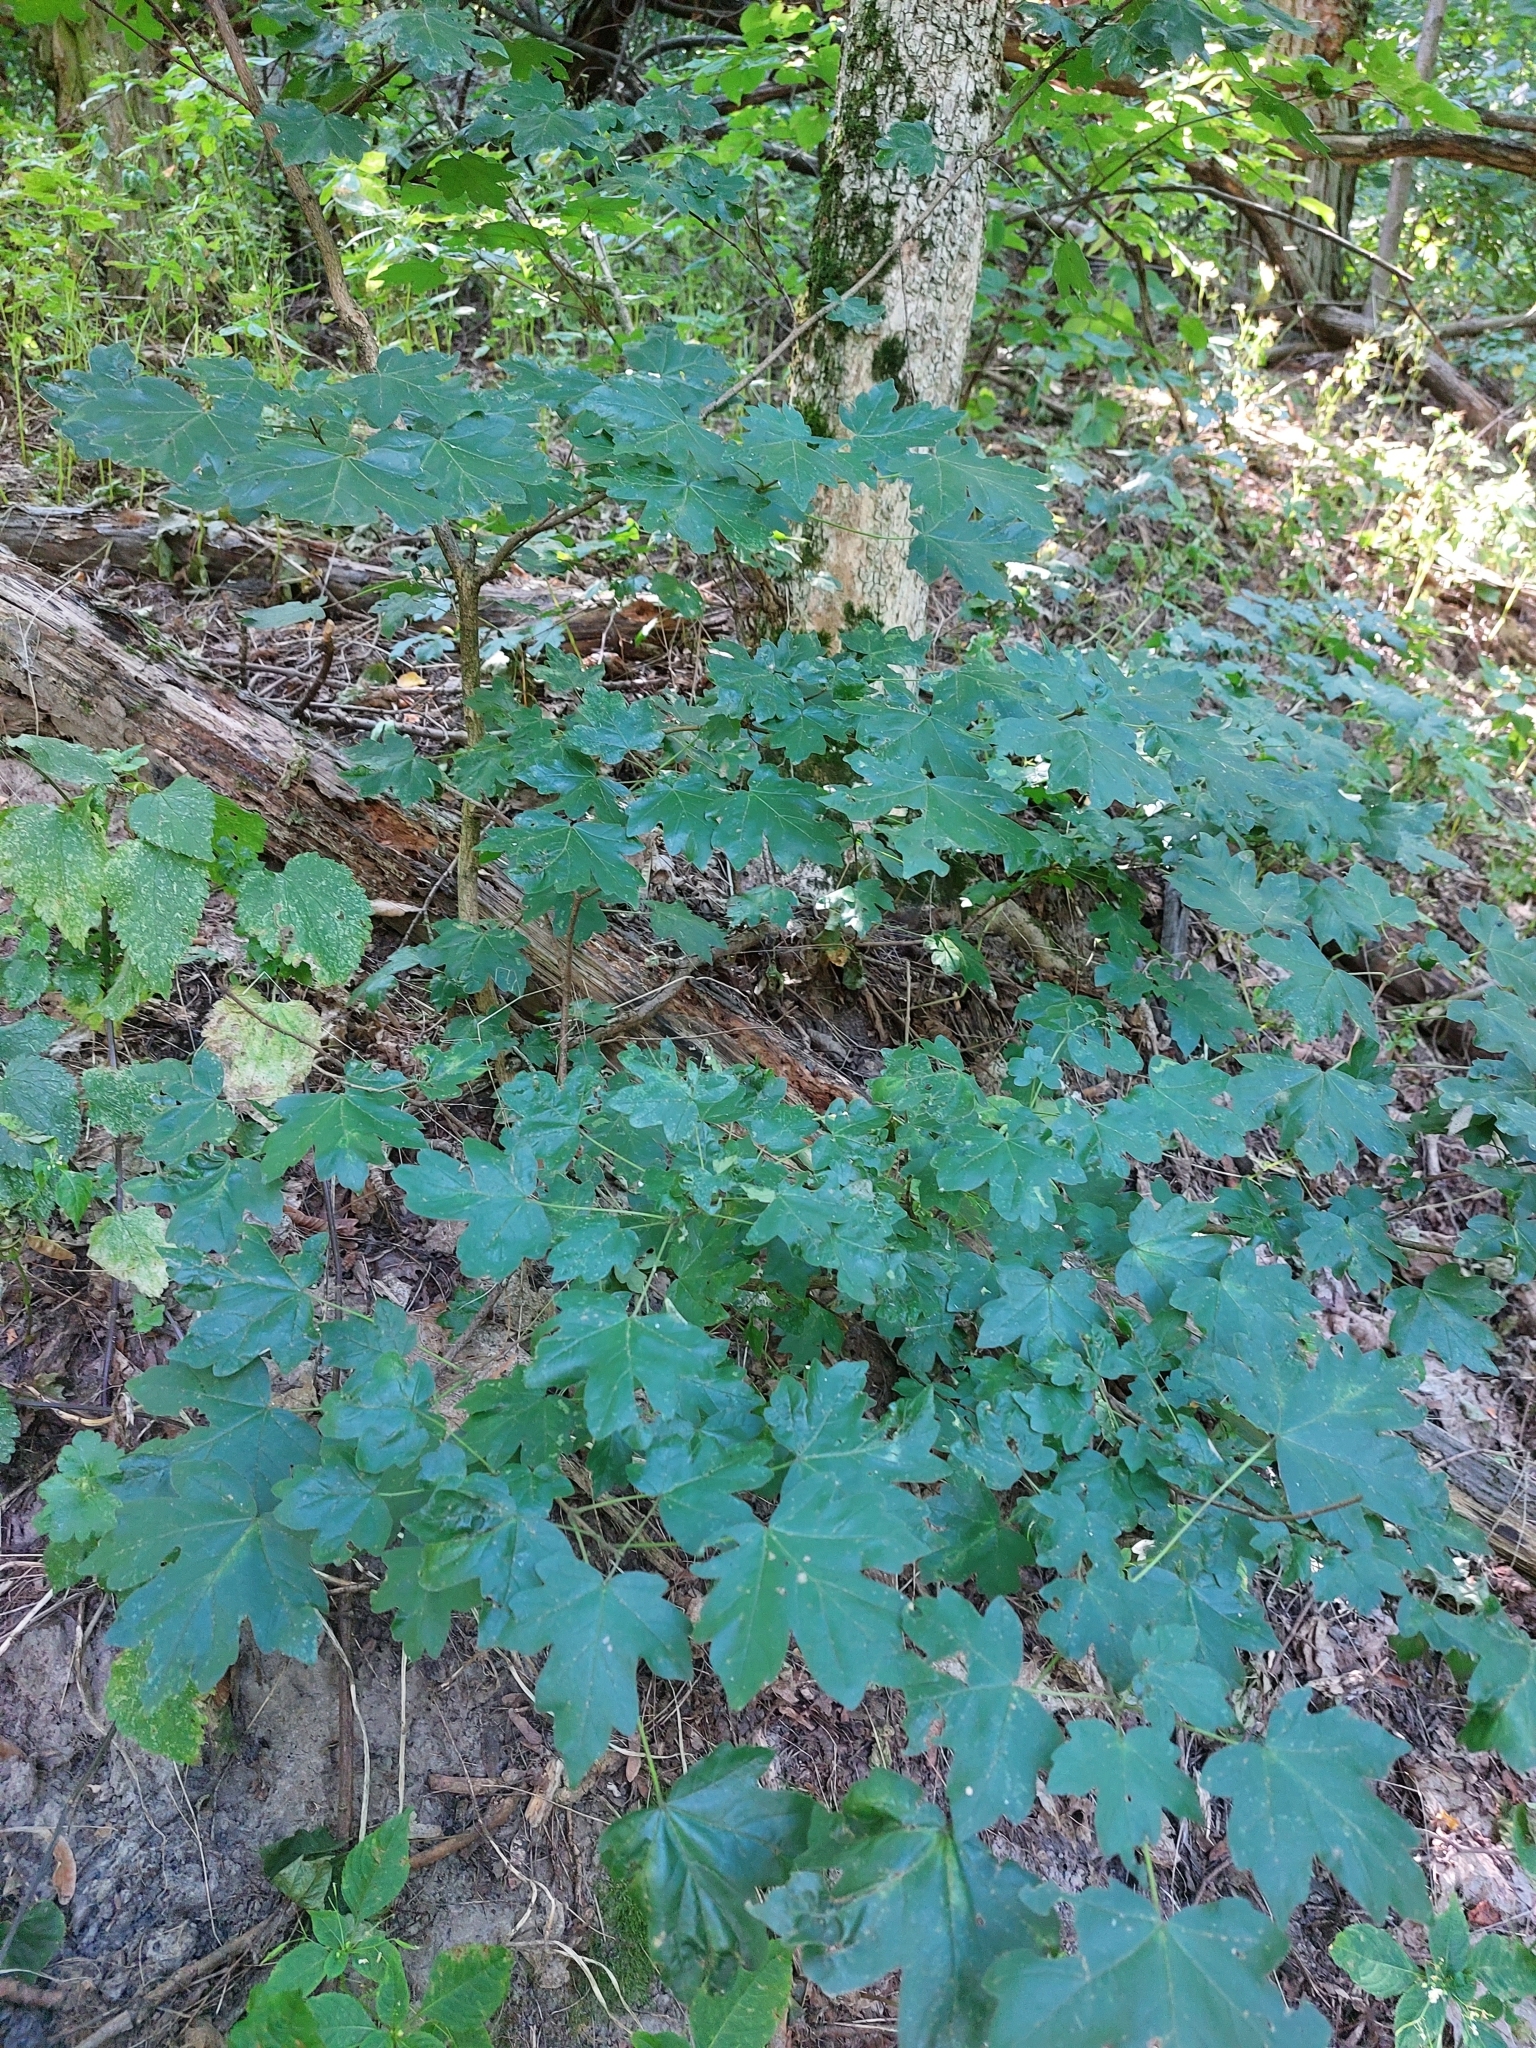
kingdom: Plantae
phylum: Tracheophyta
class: Magnoliopsida
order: Sapindales
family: Sapindaceae
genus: Acer
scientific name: Acer campestre
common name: Field maple
